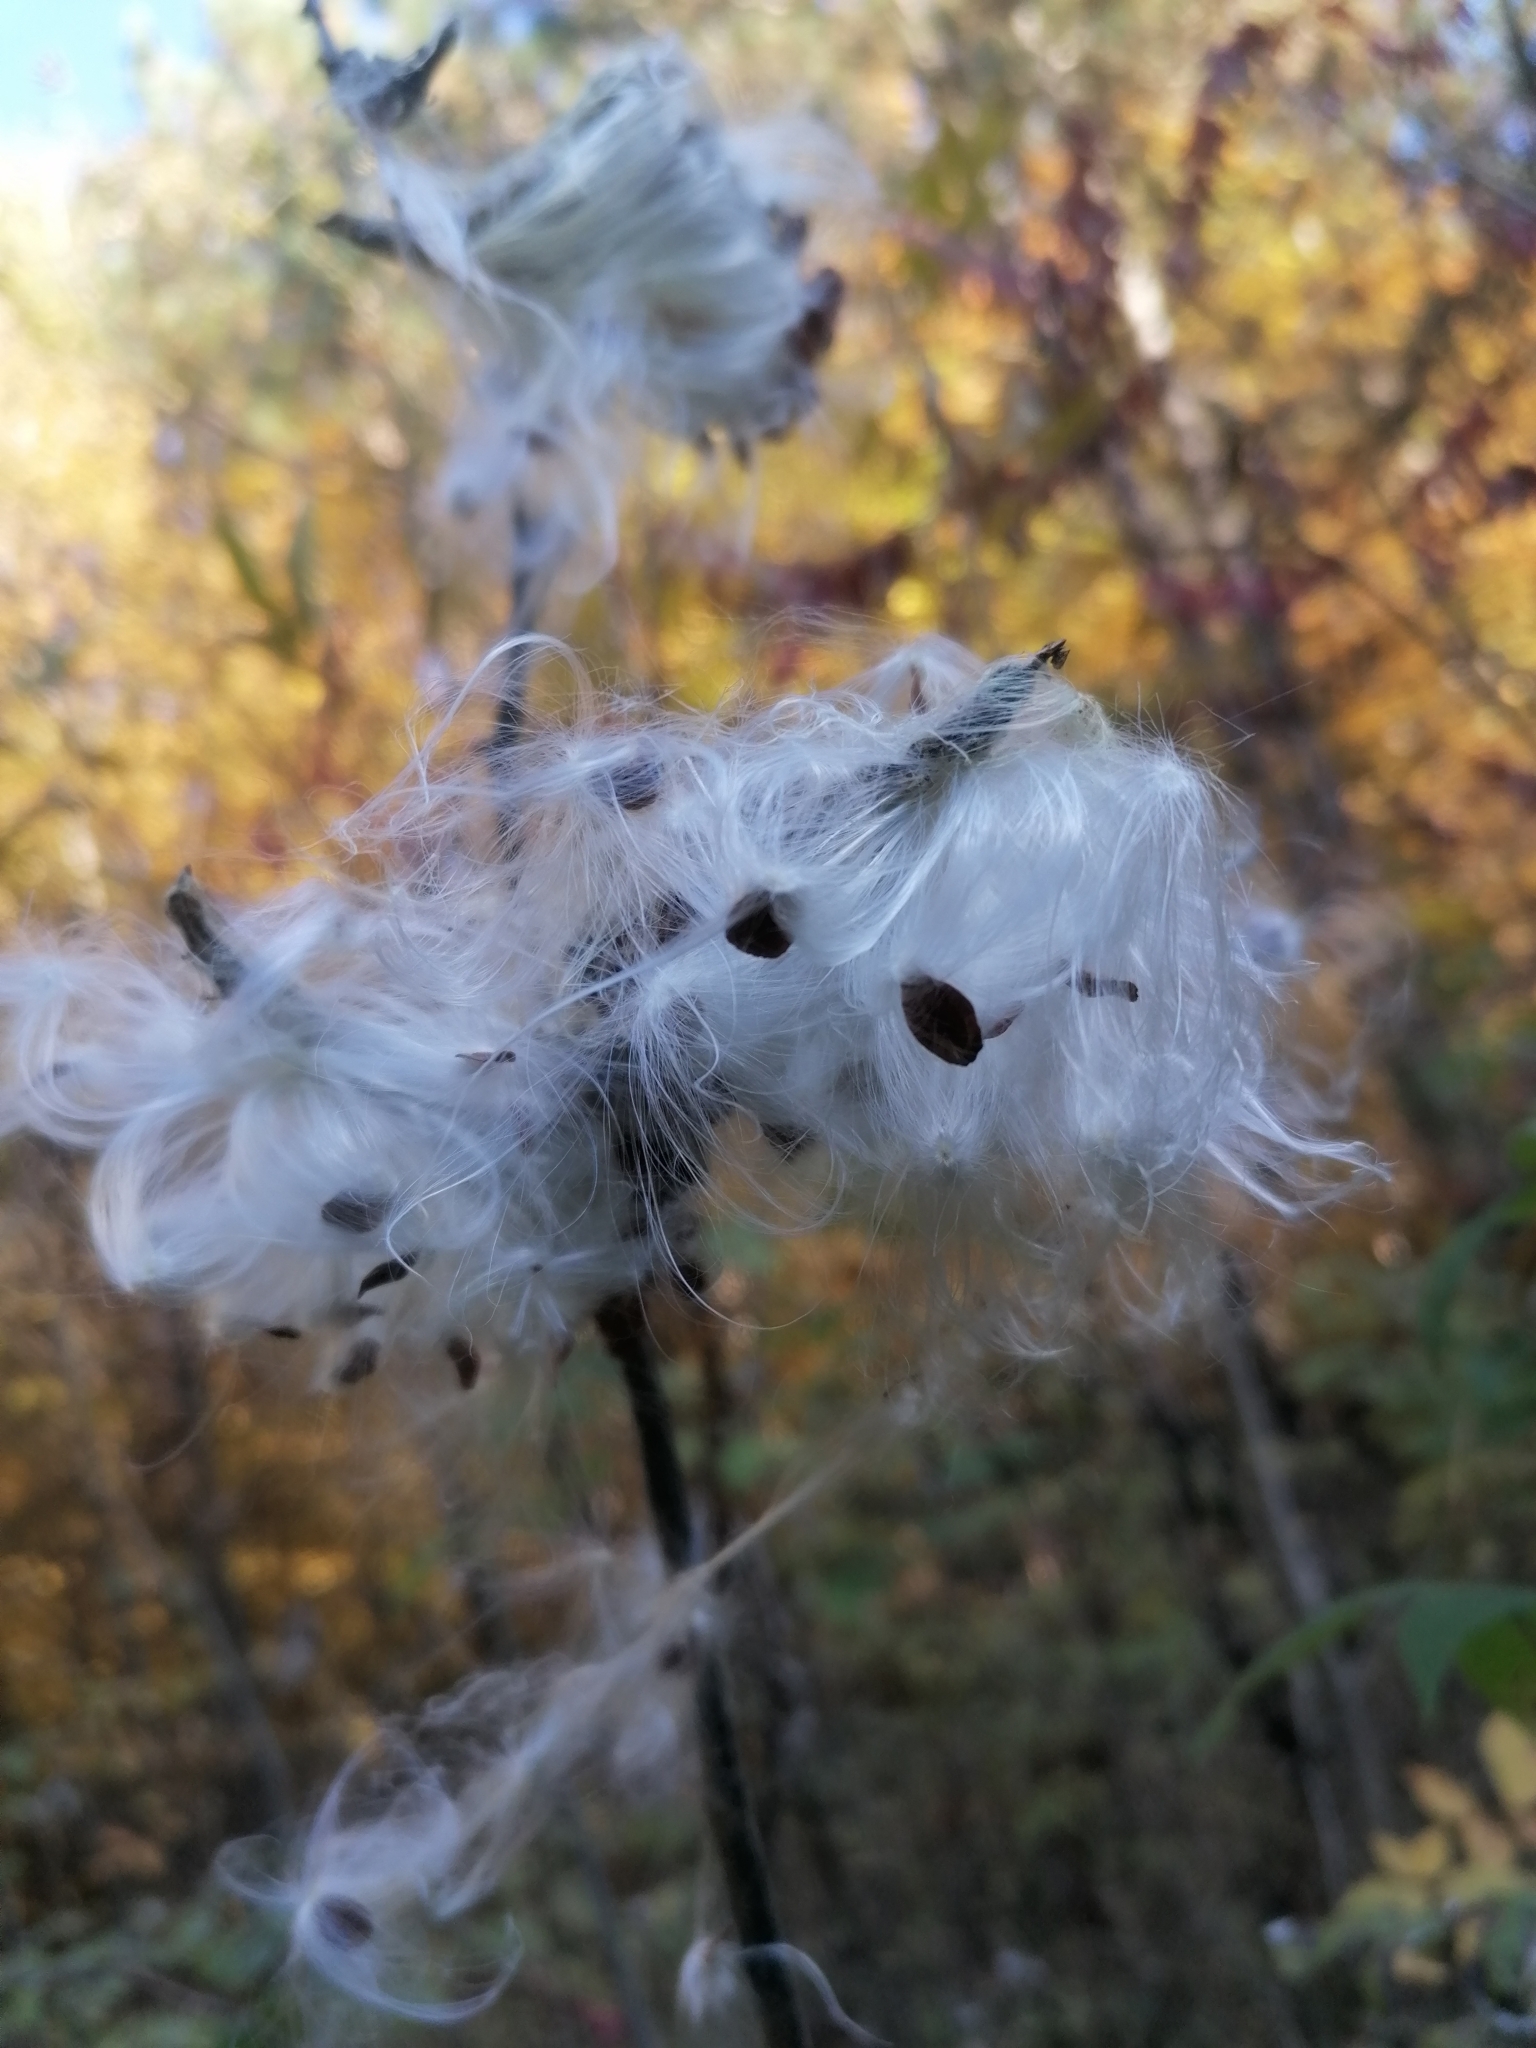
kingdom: Plantae
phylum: Tracheophyta
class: Magnoliopsida
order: Gentianales
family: Apocynaceae
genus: Asclepias
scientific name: Asclepias syriaca
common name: Common milkweed
